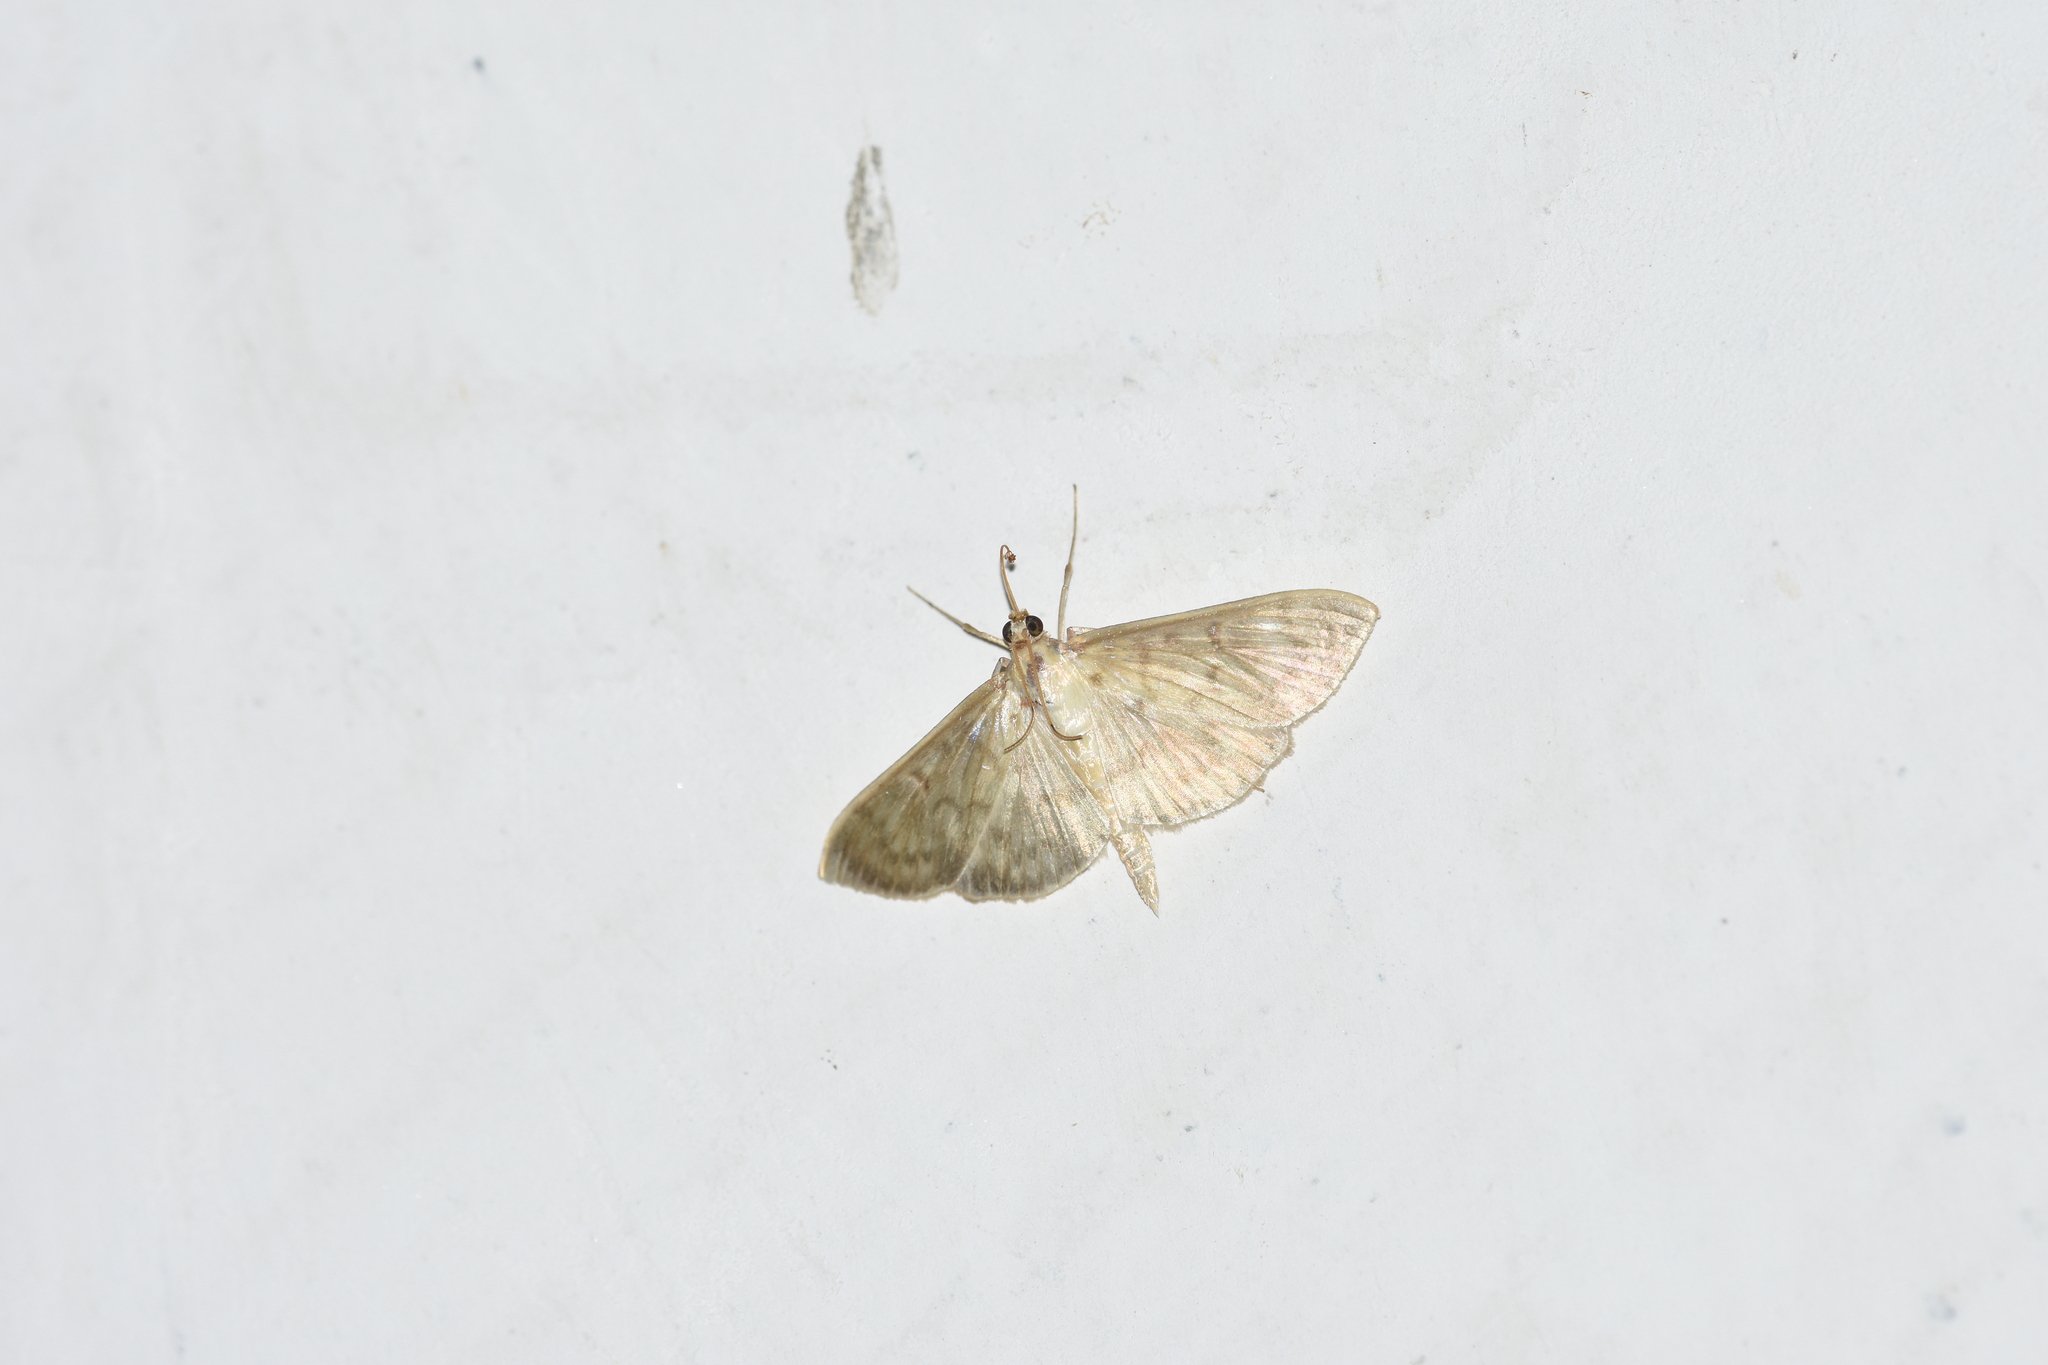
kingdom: Animalia
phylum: Arthropoda
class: Insecta
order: Lepidoptera
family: Crambidae
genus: Patania
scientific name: Patania ruralis
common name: Mother of pearl
